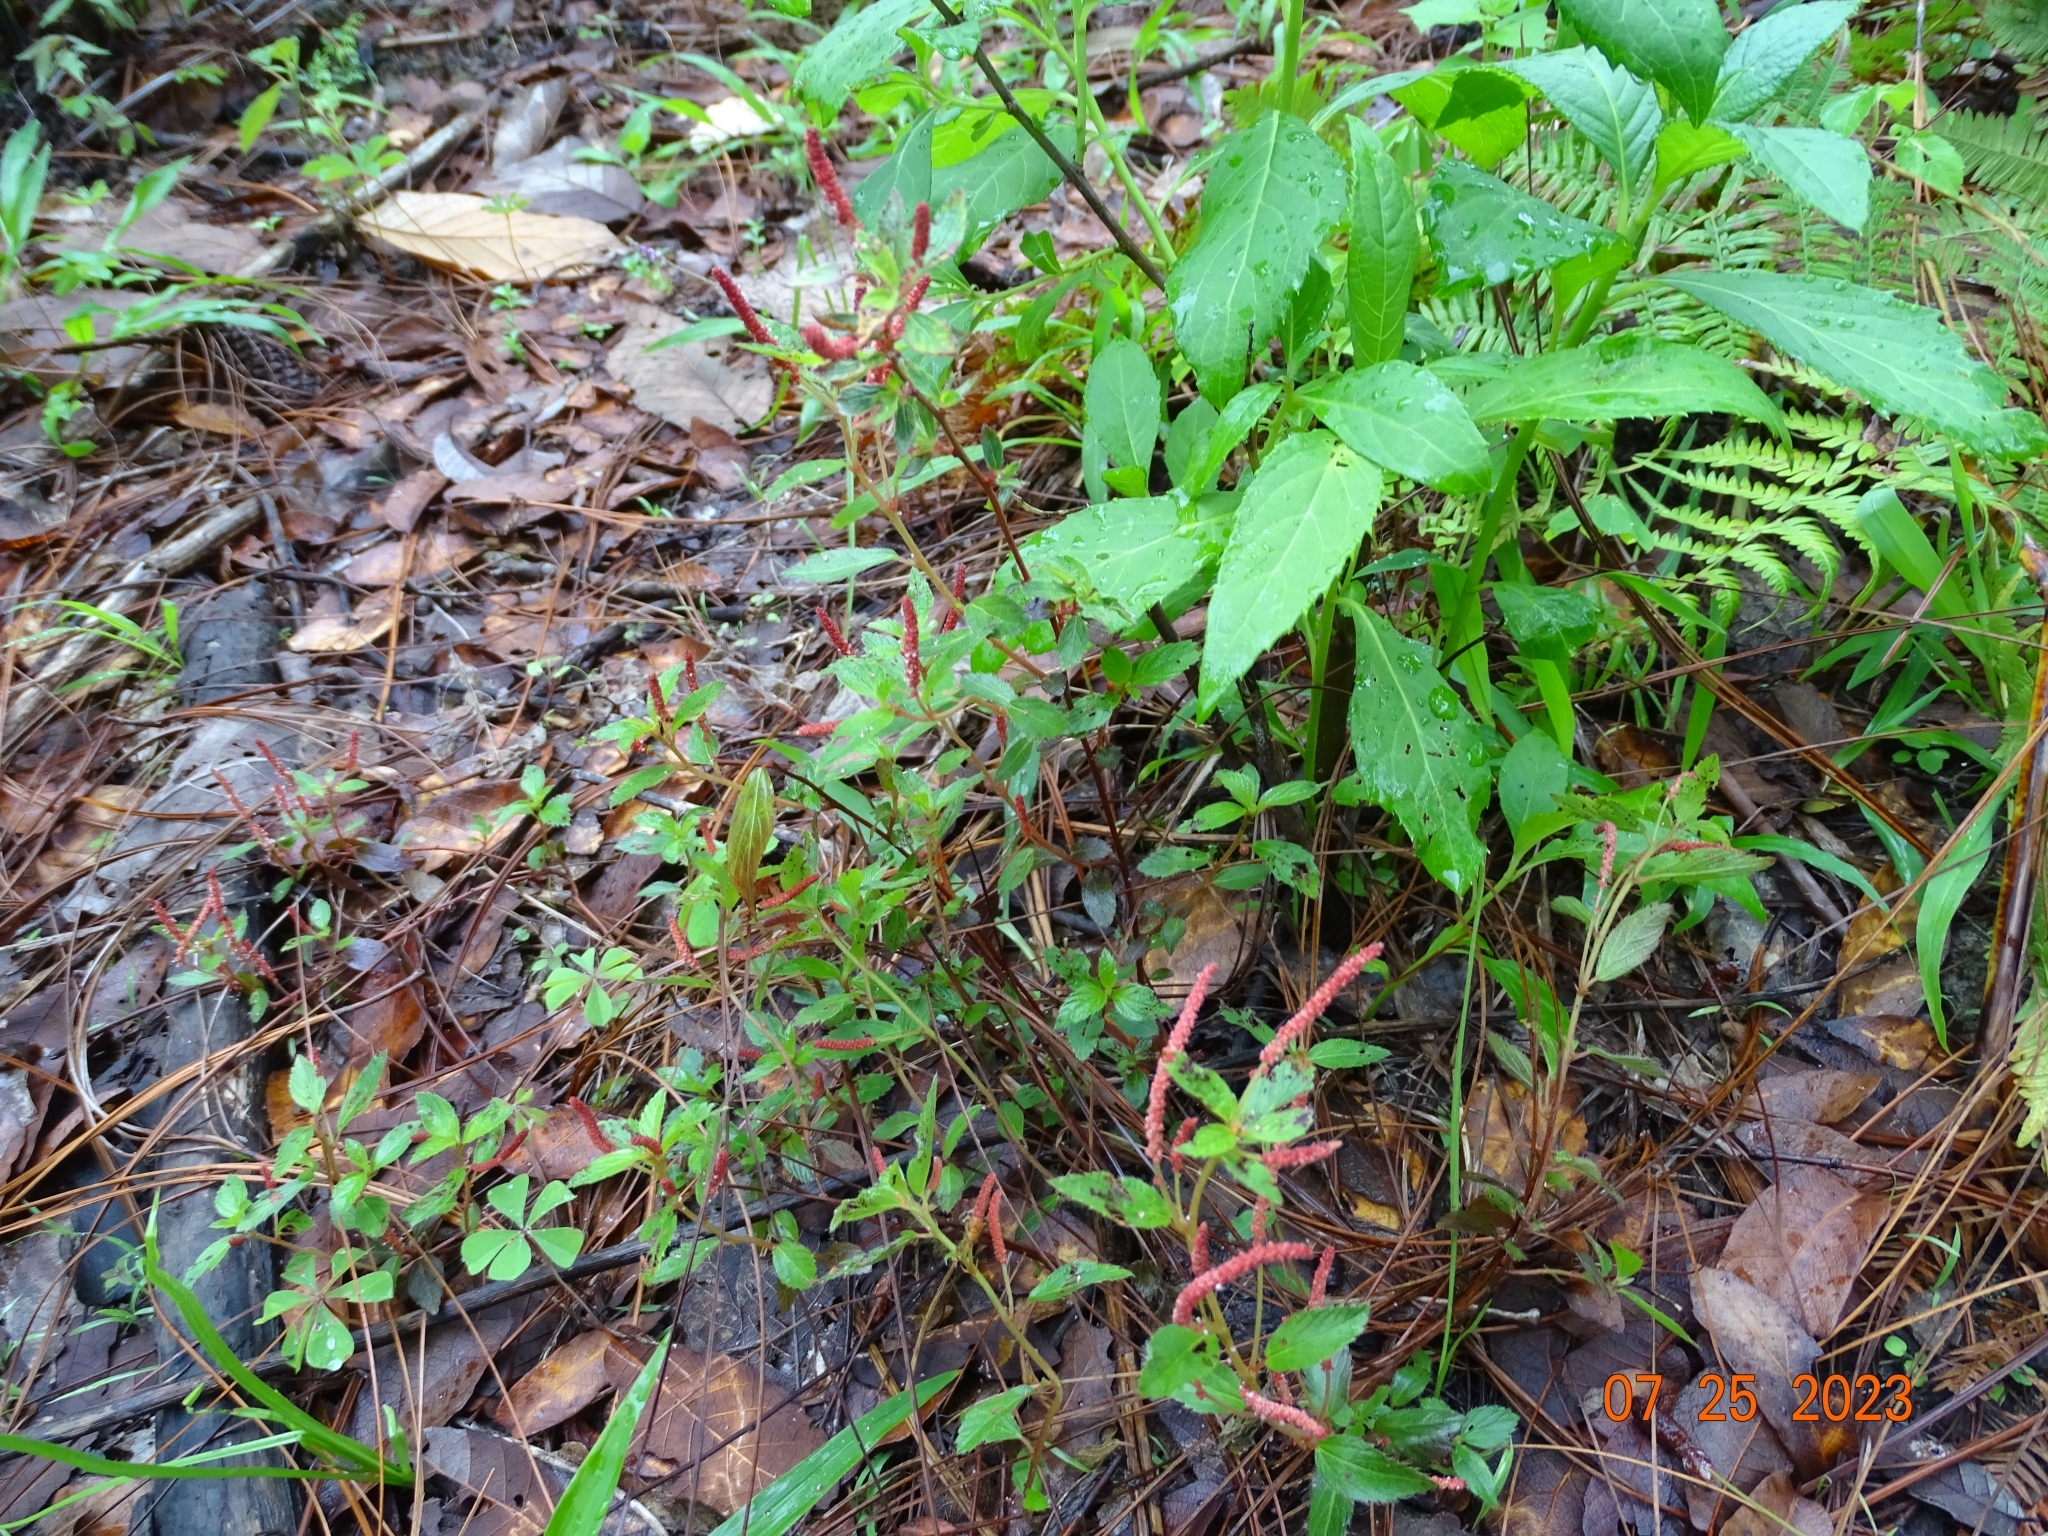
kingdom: Plantae
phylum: Tracheophyta
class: Magnoliopsida
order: Malpighiales
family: Euphorbiaceae
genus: Acalypha
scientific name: Acalypha phleoides
